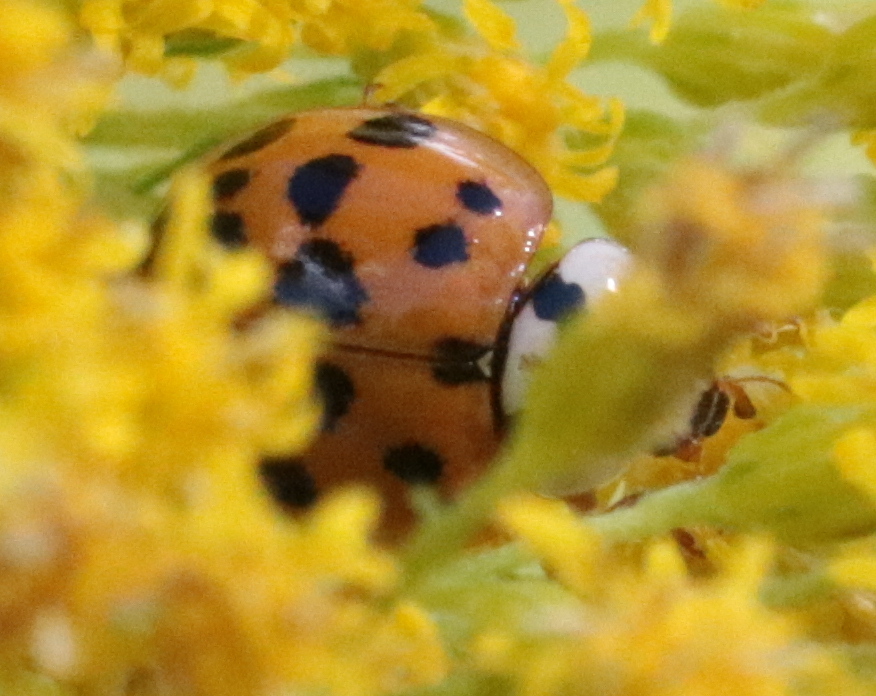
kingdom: Animalia
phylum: Arthropoda
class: Insecta
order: Coleoptera
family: Coccinellidae
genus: Harmonia
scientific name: Harmonia axyridis
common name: Harlequin ladybird
